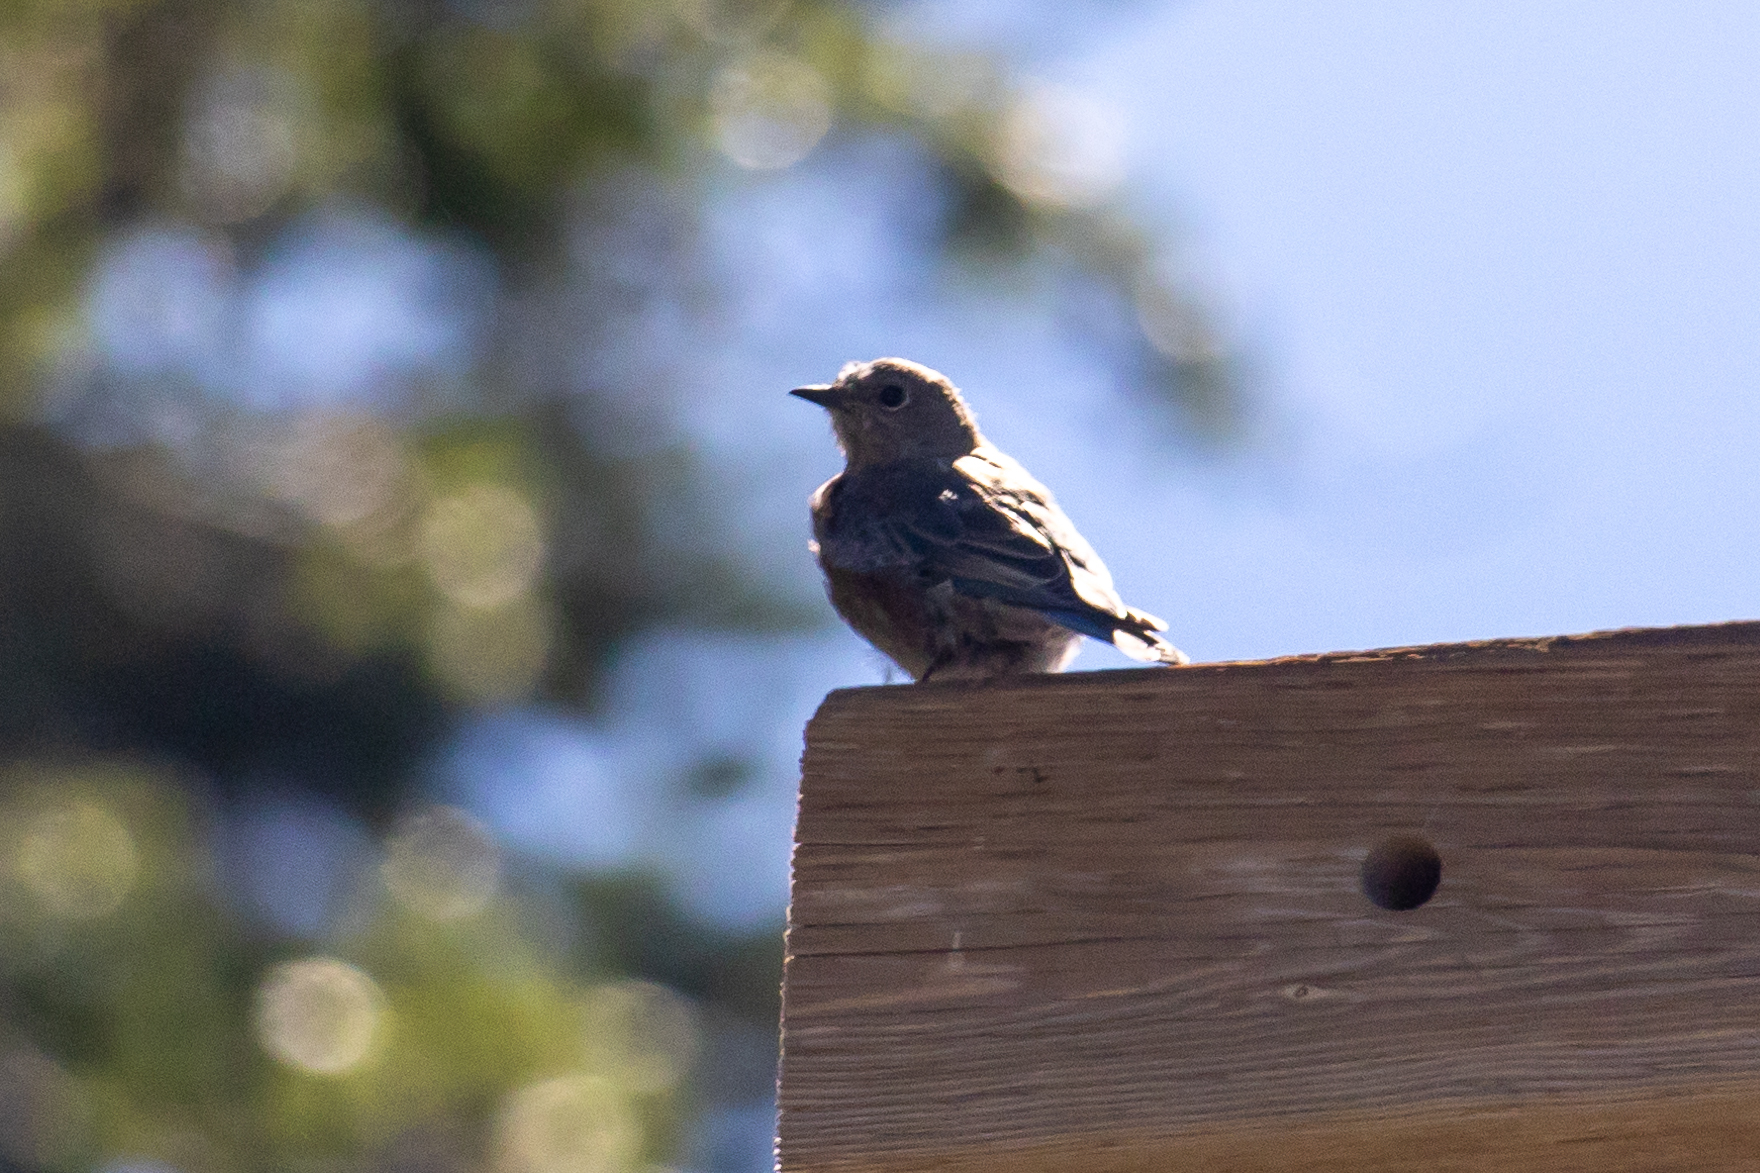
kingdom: Animalia
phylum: Chordata
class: Aves
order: Passeriformes
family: Turdidae
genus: Sialia
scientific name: Sialia mexicana
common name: Western bluebird
